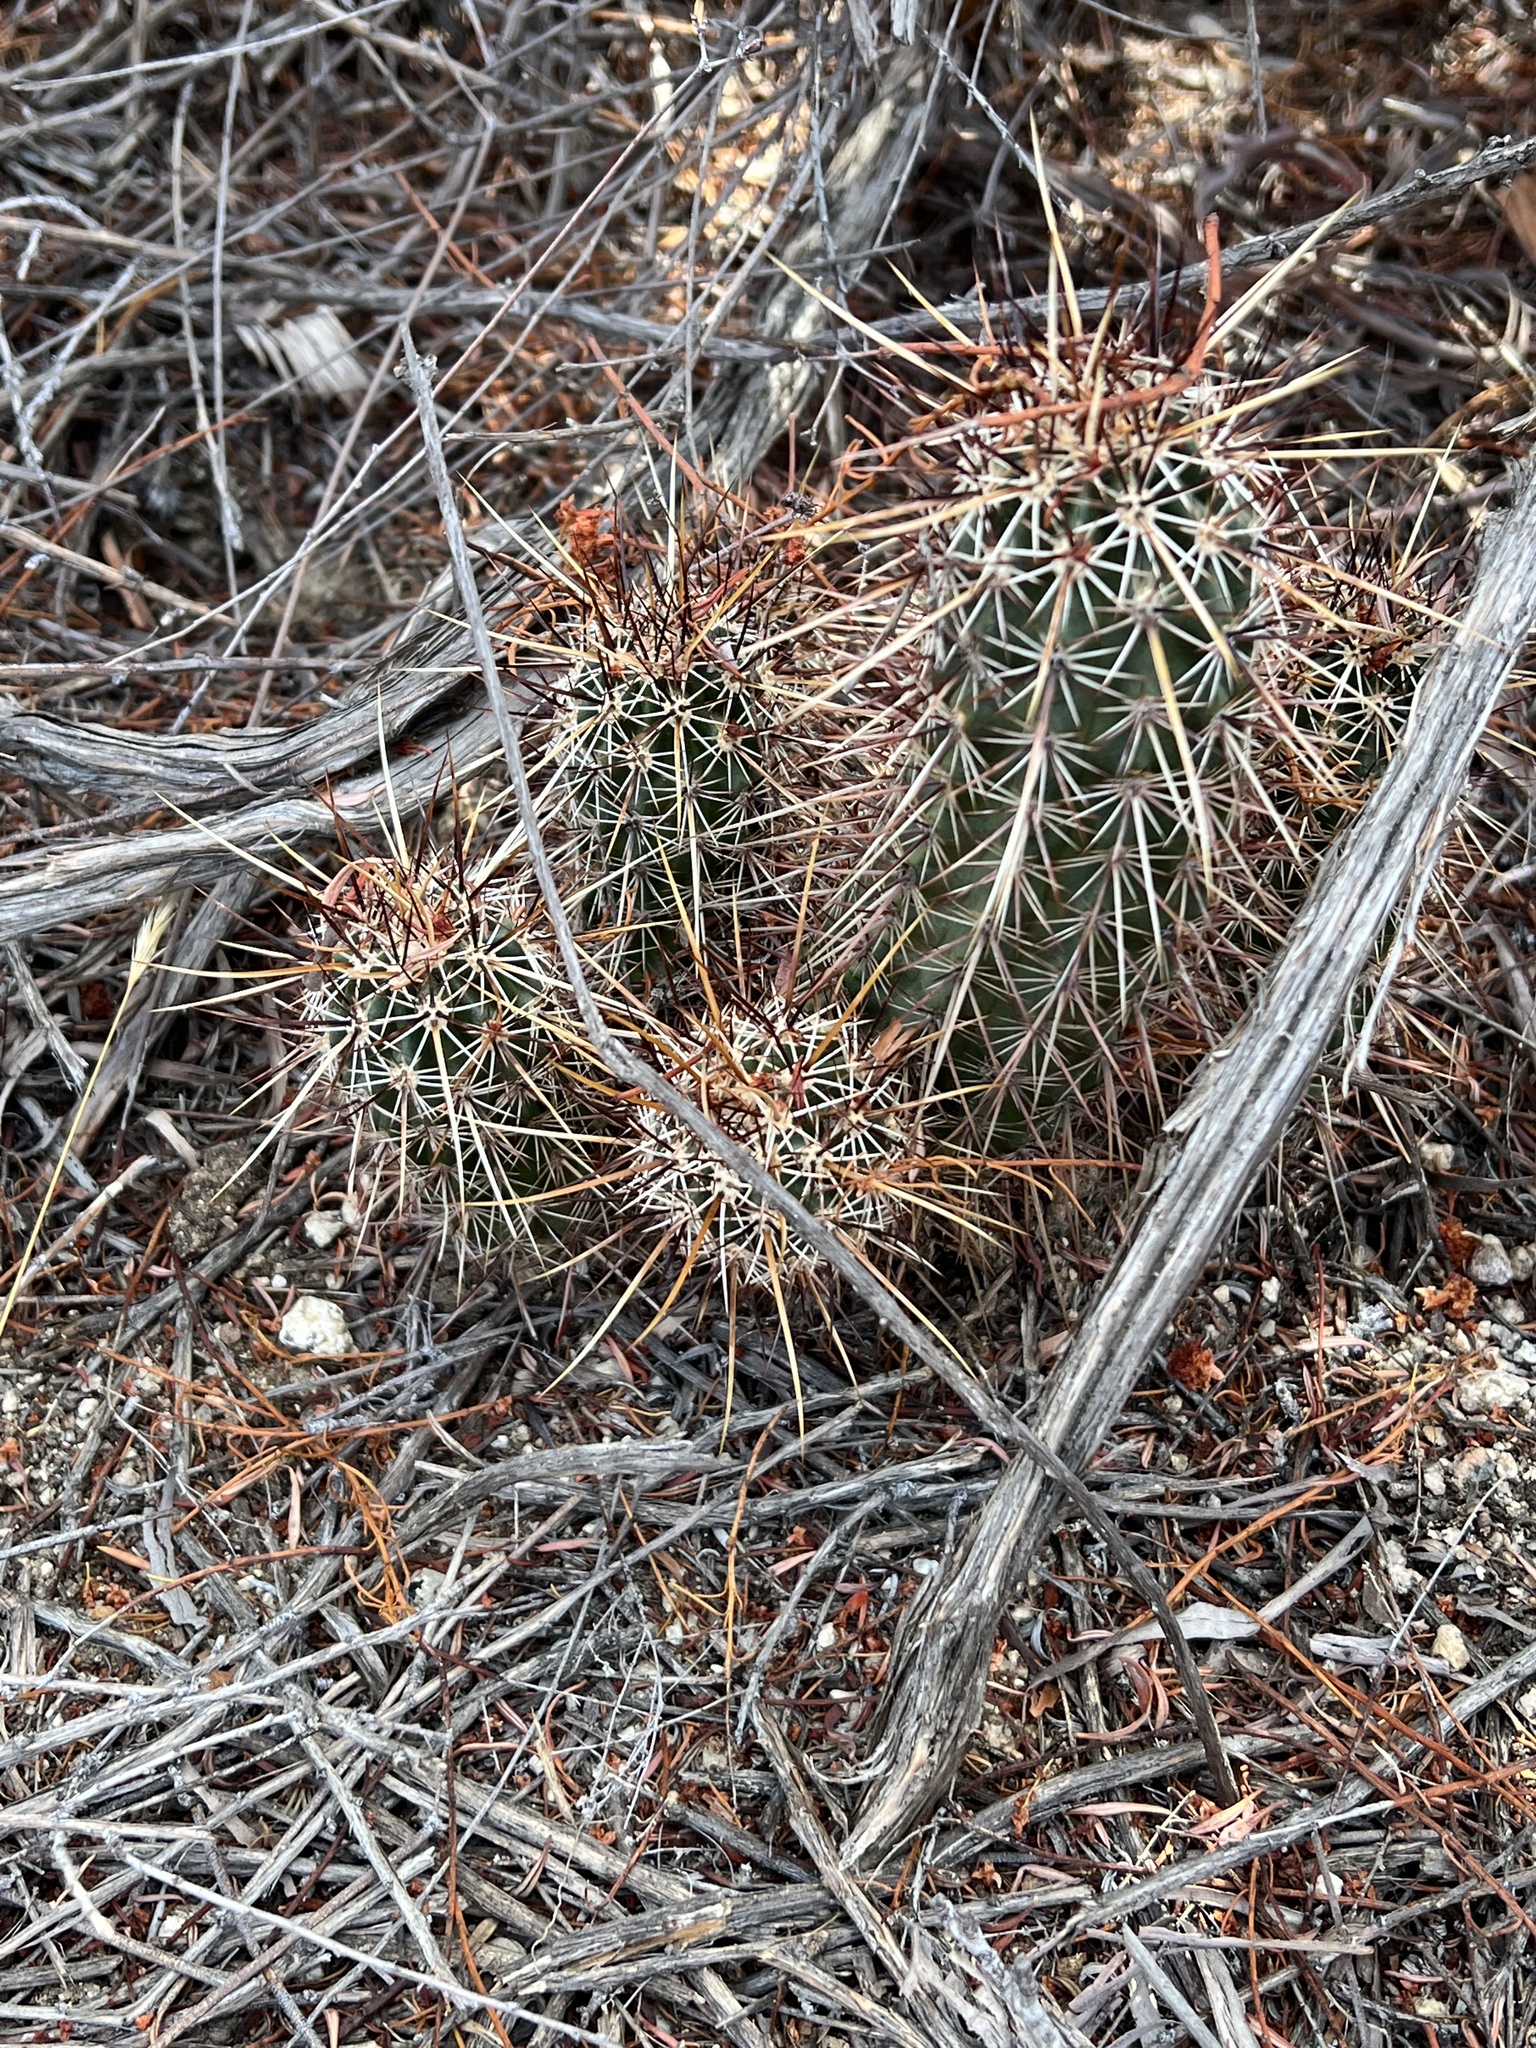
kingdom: Plantae
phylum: Tracheophyta
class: Magnoliopsida
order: Caryophyllales
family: Cactaceae
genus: Echinocereus
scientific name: Echinocereus engelmannii
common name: Engelmann's hedgehog cactus
